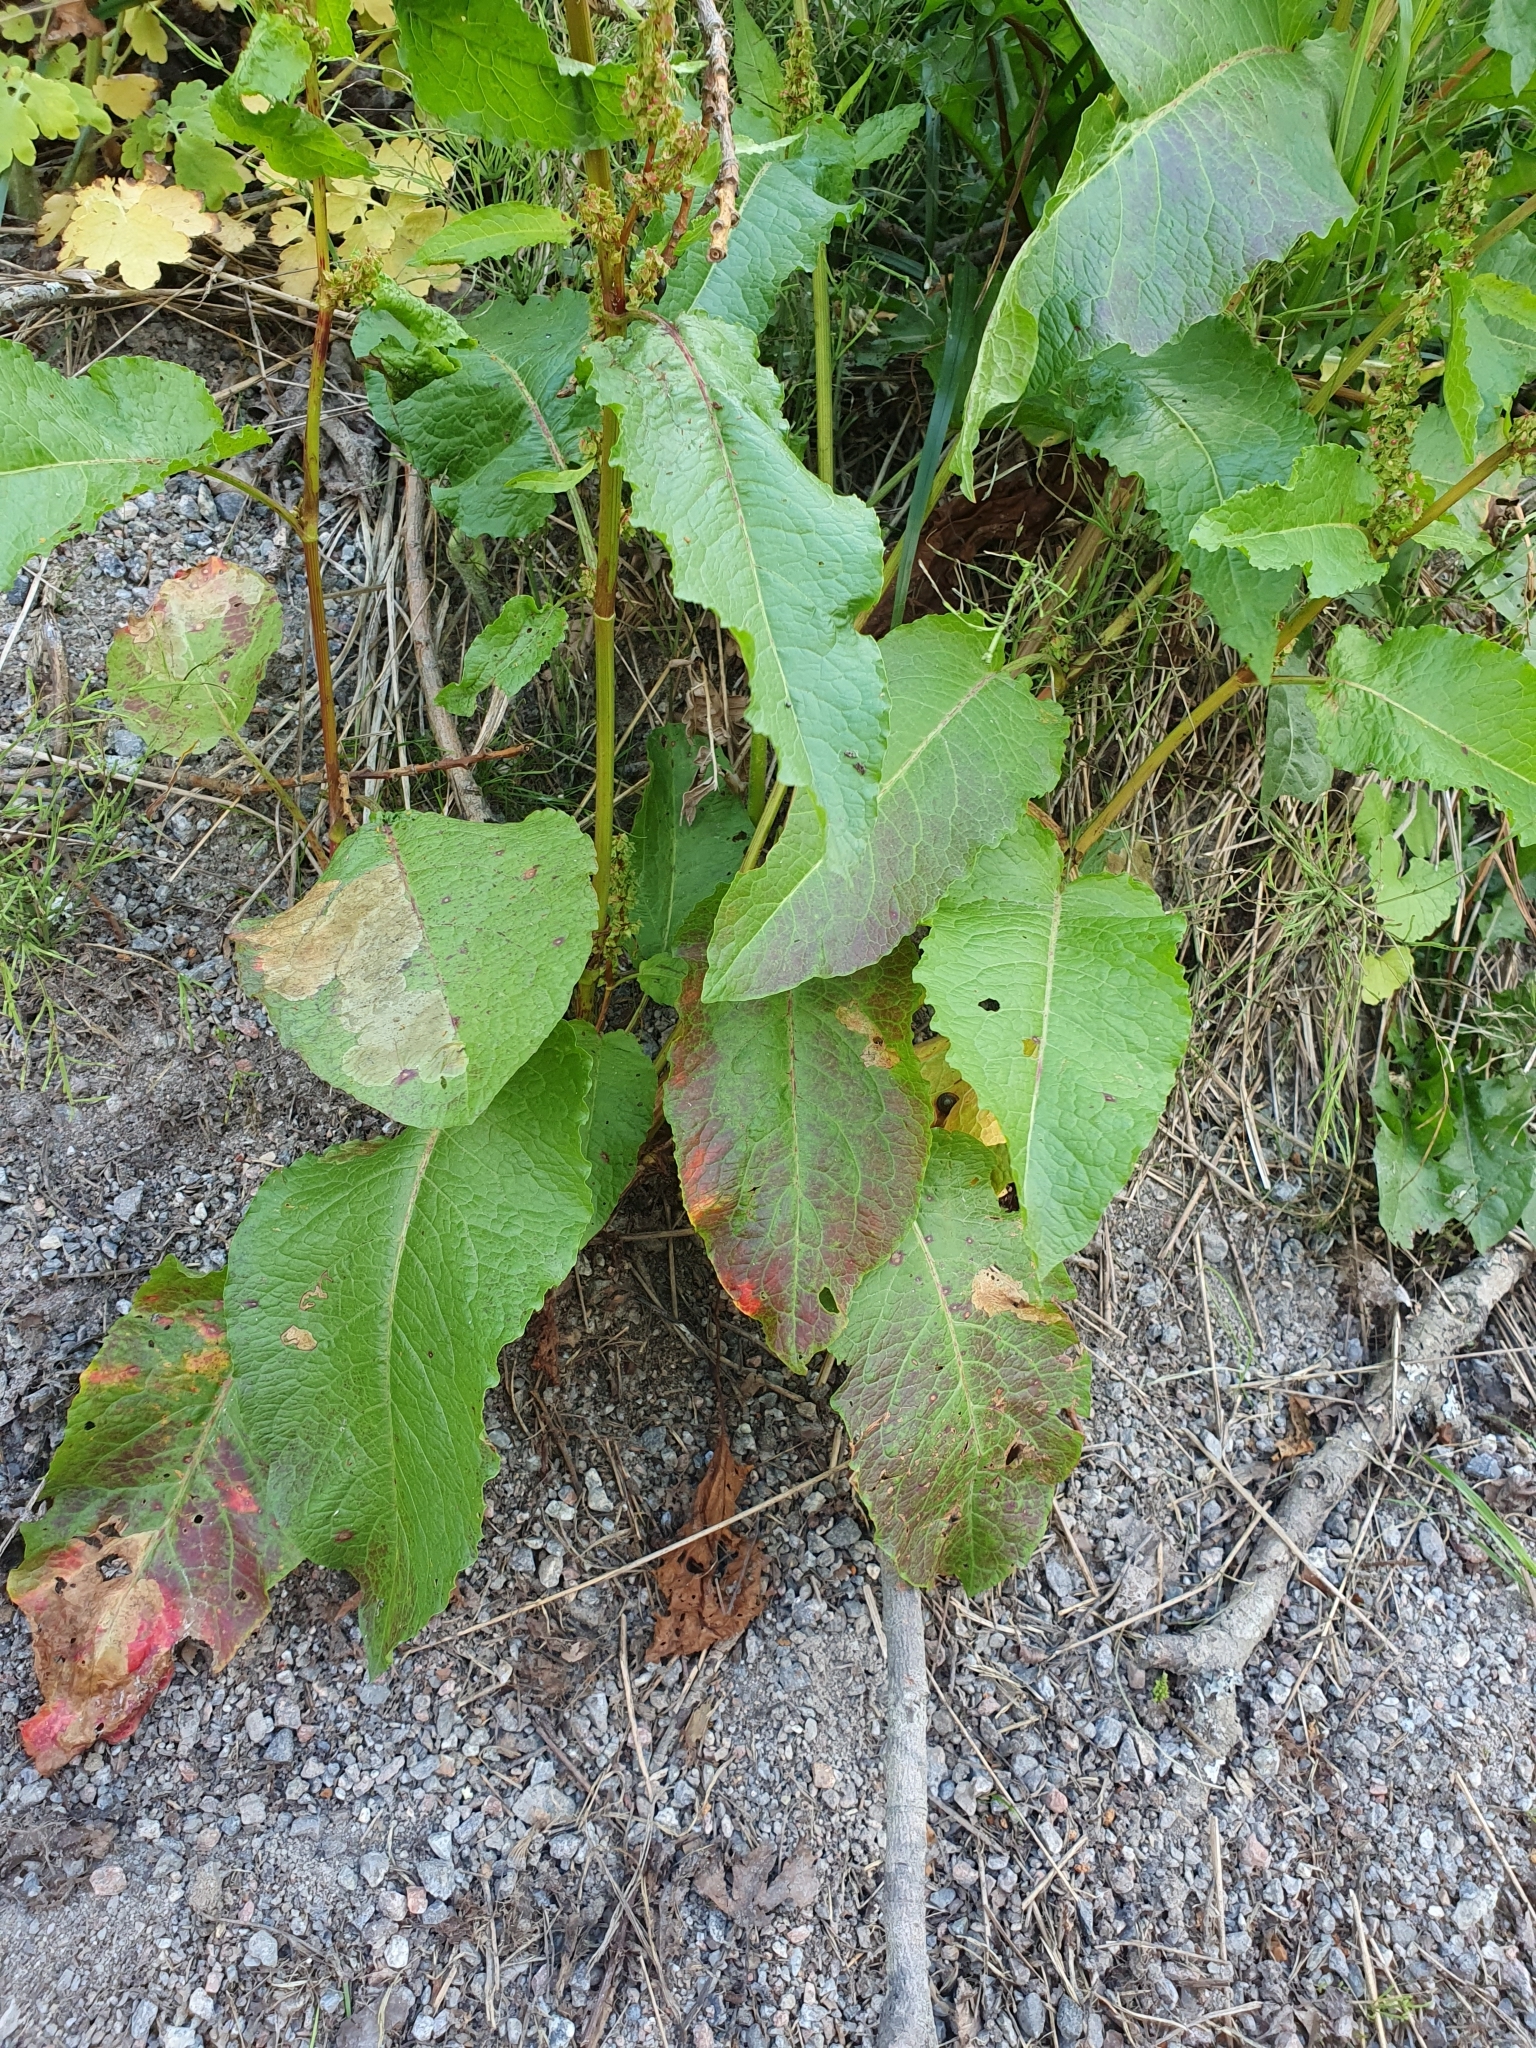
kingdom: Plantae
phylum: Tracheophyta
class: Magnoliopsida
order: Caryophyllales
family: Polygonaceae
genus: Rumex
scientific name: Rumex obtusifolius
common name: Bitter dock
